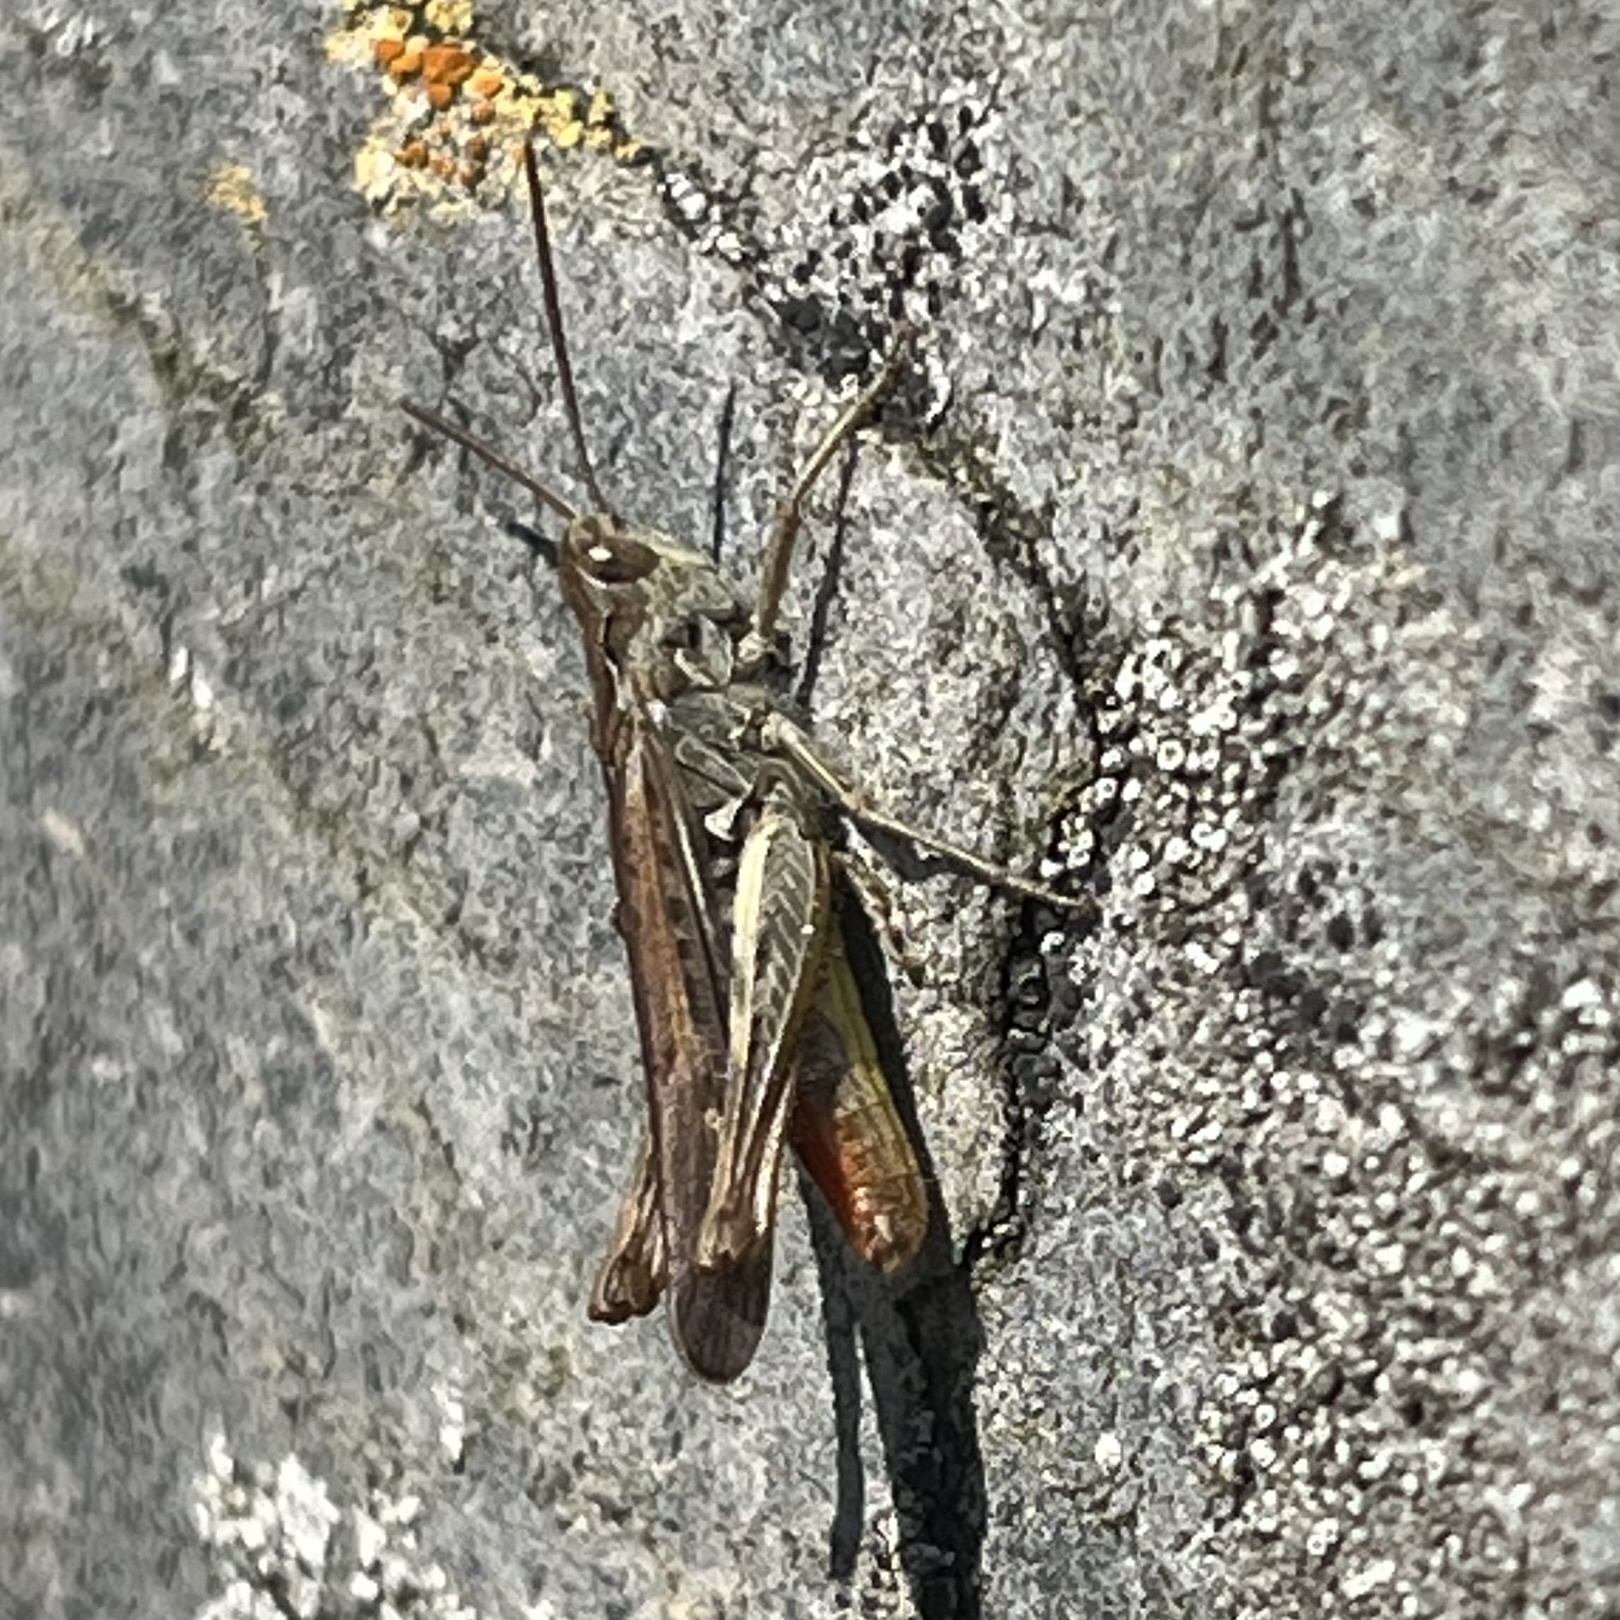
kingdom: Animalia
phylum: Arthropoda
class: Insecta
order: Orthoptera
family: Acrididae
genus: Chorthippus
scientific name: Chorthippus brunneus
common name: Field grasshopper
